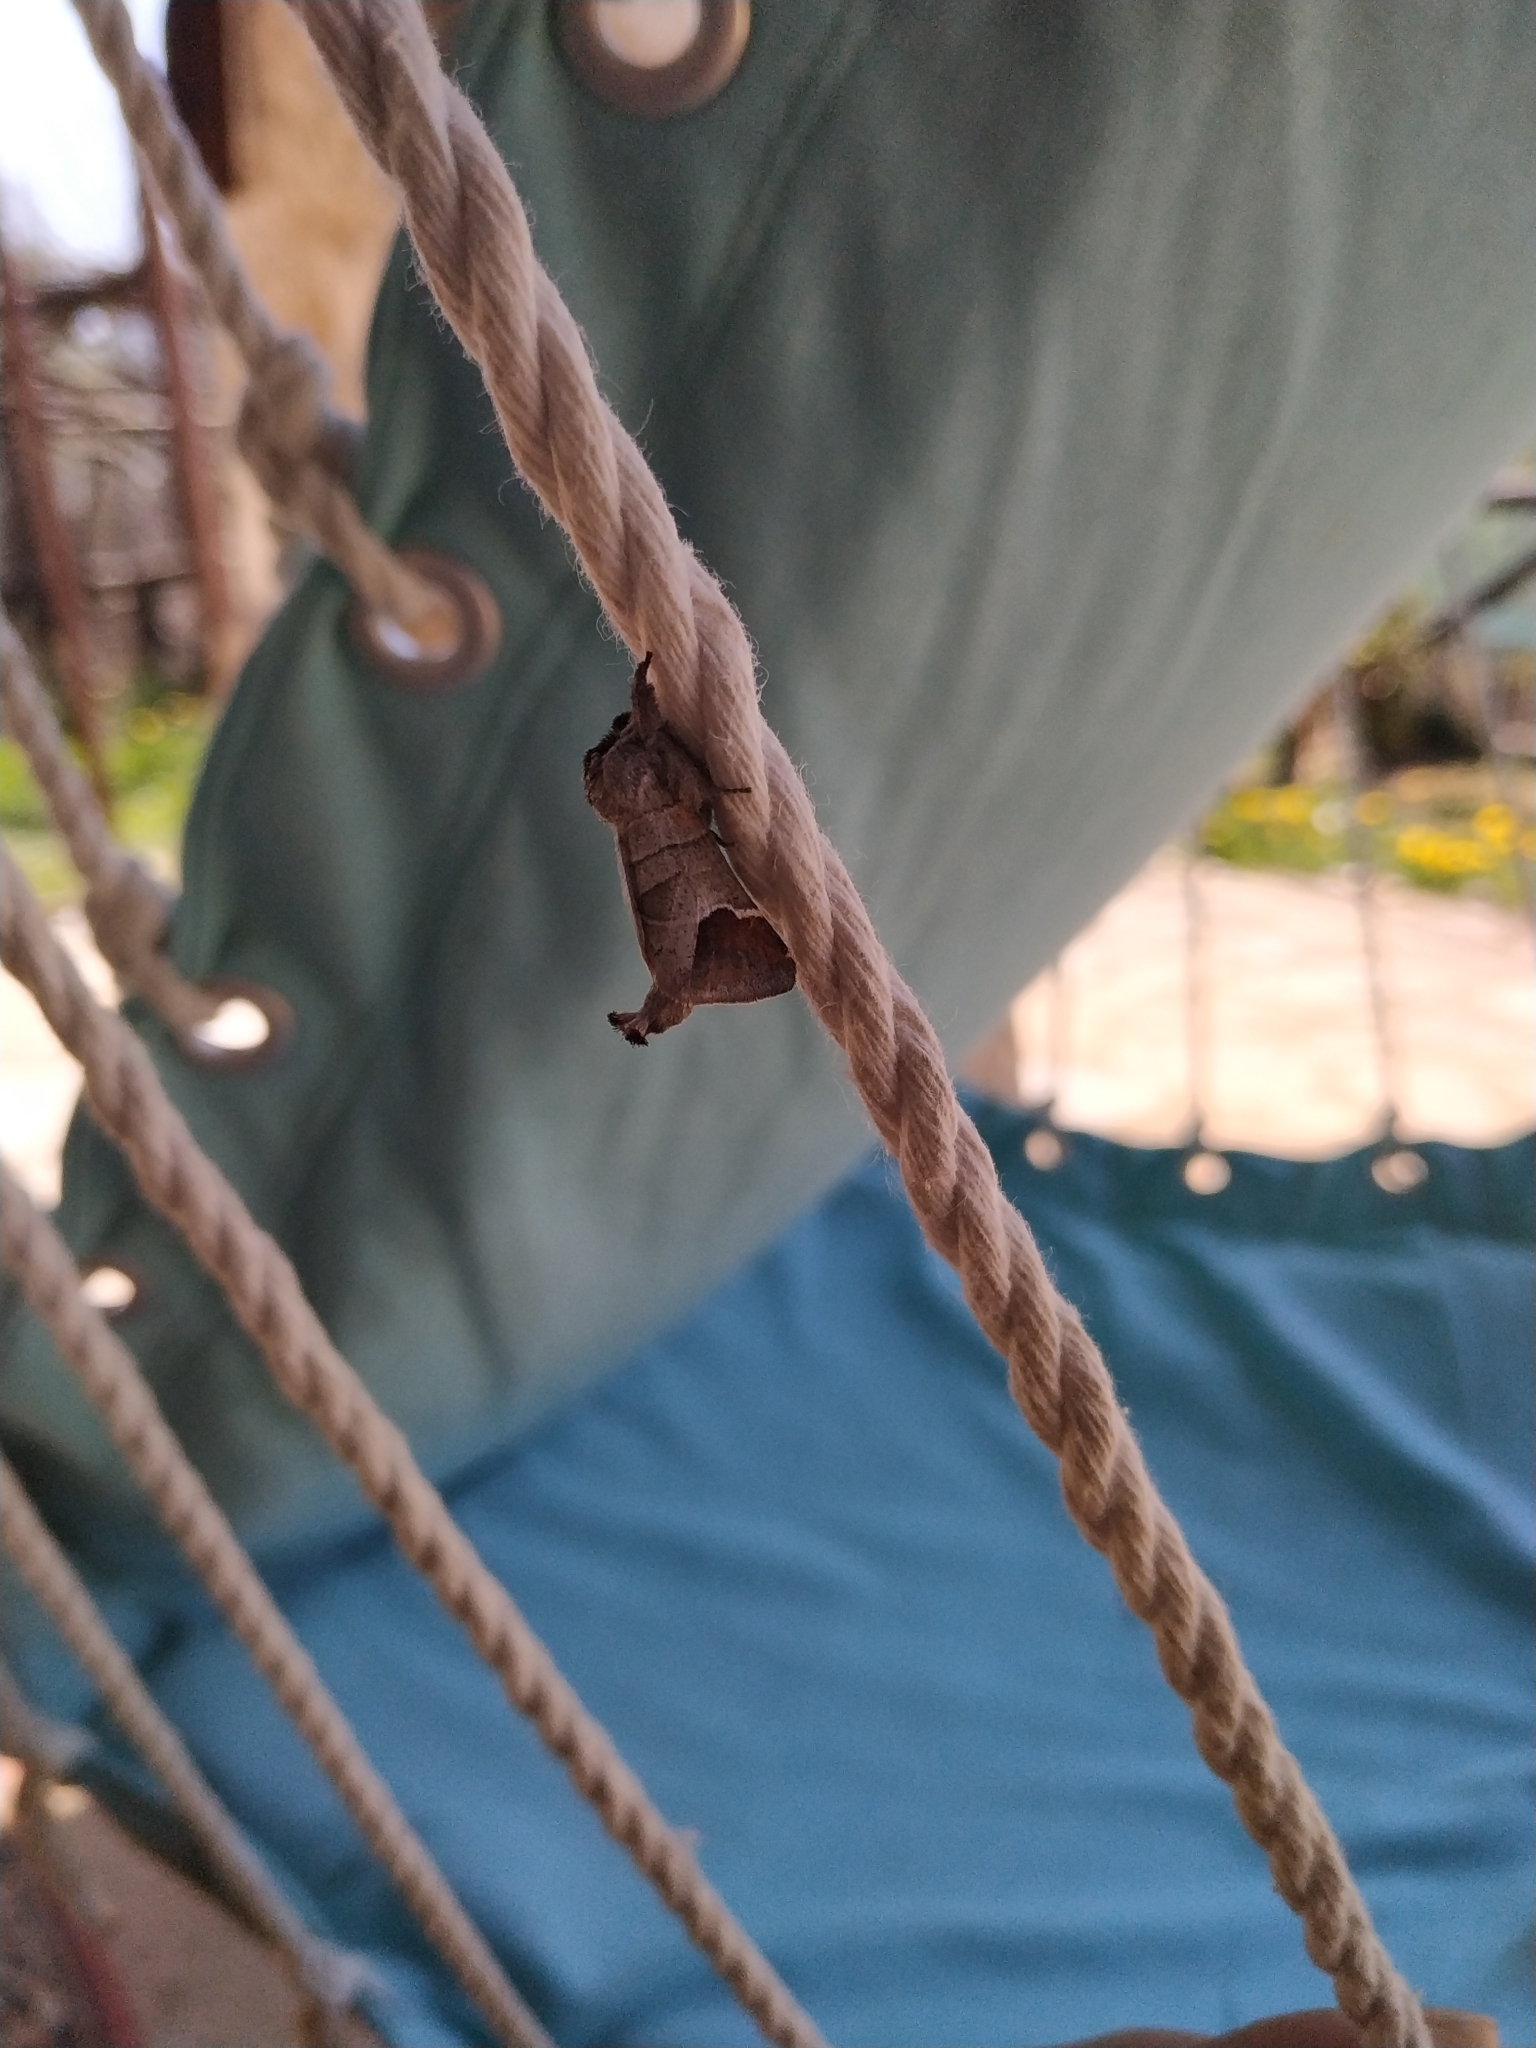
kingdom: Animalia
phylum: Arthropoda
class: Insecta
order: Lepidoptera
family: Notodontidae
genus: Clostera
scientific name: Clostera curtula
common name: Chocolate-tip
